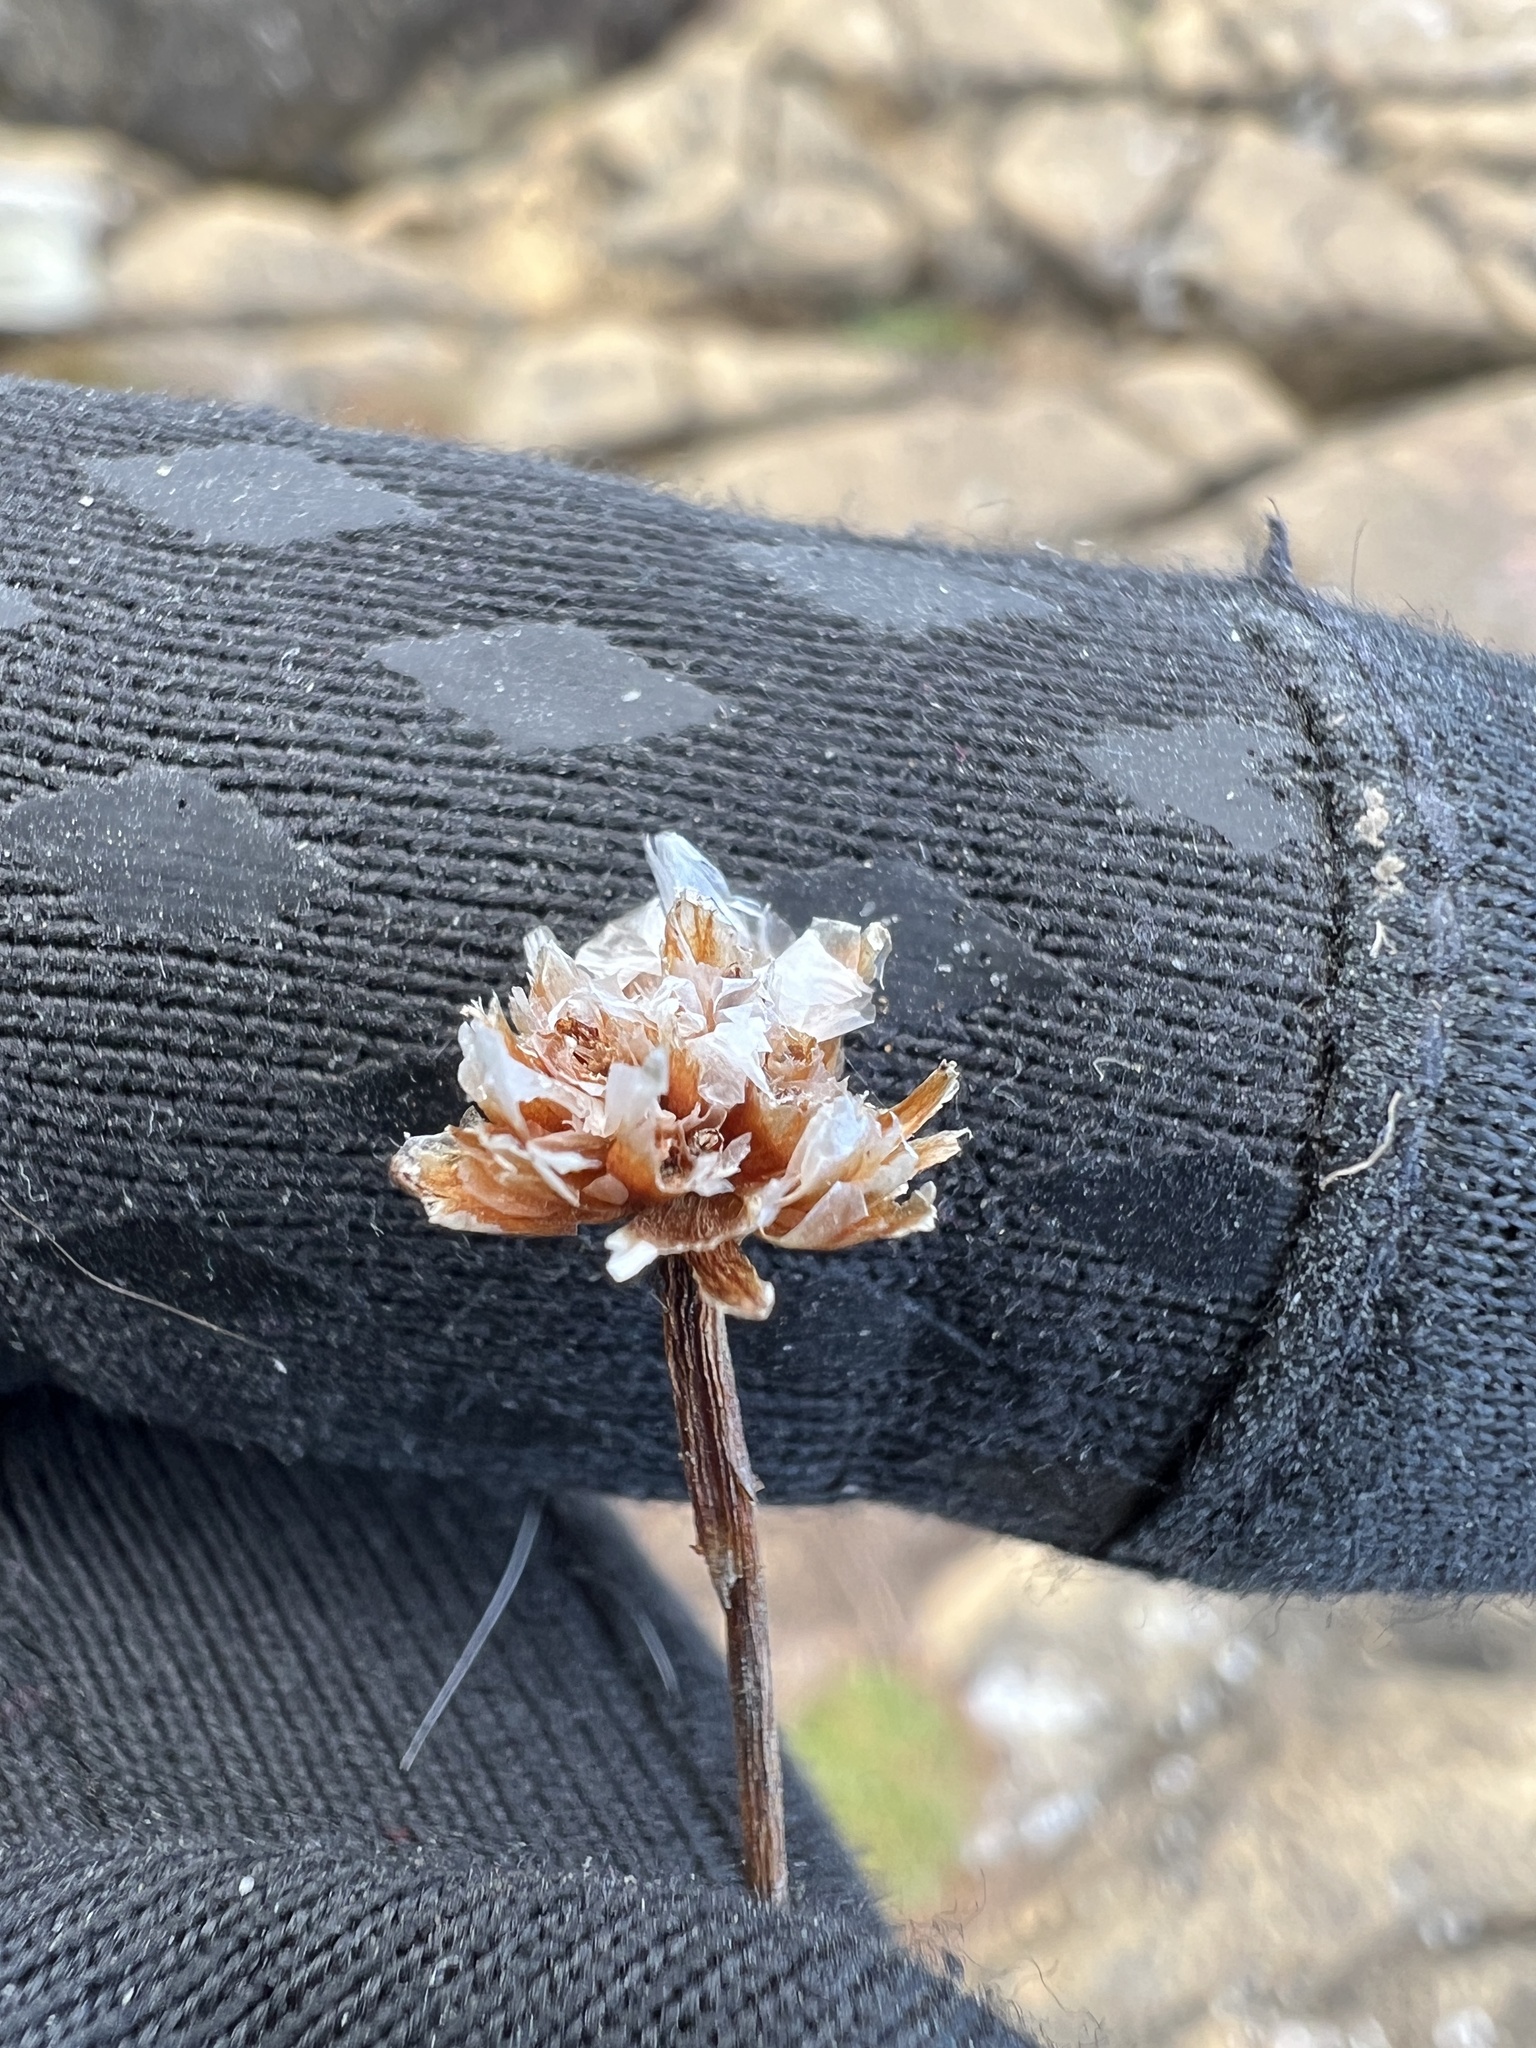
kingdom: Plantae
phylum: Tracheophyta
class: Magnoliopsida
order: Caryophyllales
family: Plumbaginaceae
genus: Armeria
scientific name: Armeria maritima
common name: Thrift
